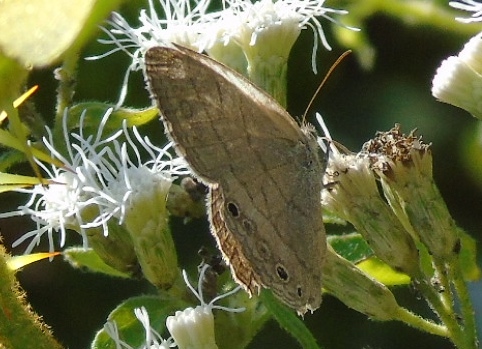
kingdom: Animalia
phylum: Arthropoda
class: Insecta
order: Lepidoptera
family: Nymphalidae
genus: Hermeuptychia
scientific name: Hermeuptychia hermes
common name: Hermes satyr
